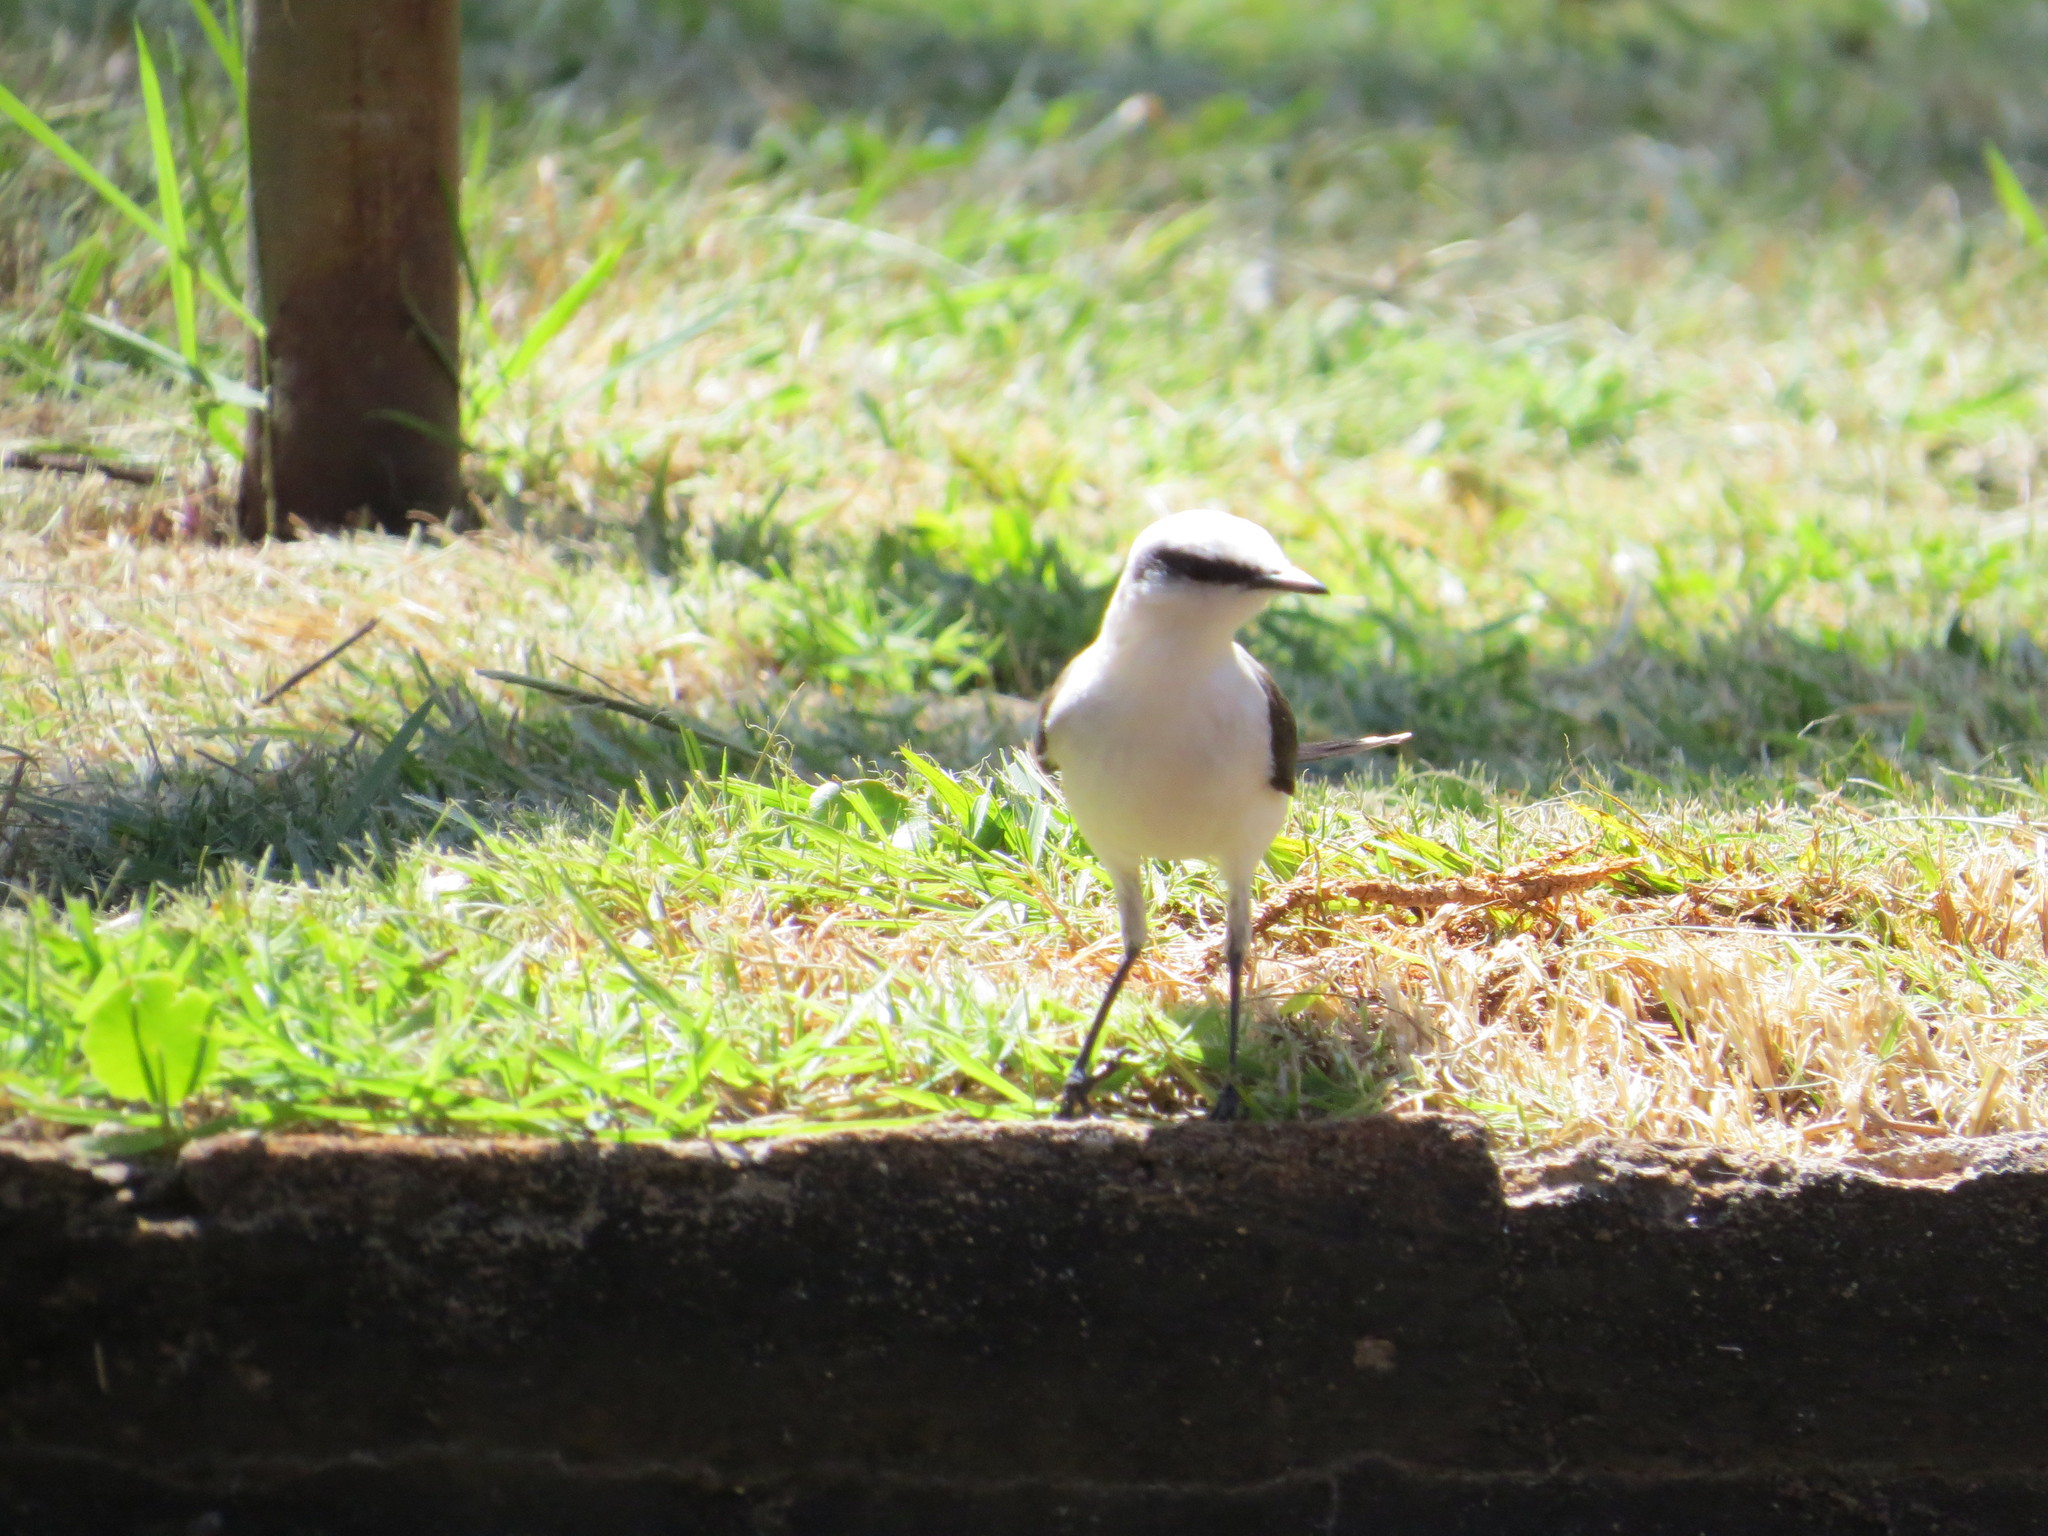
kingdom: Animalia
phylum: Chordata
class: Aves
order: Passeriformes
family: Tyrannidae
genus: Fluvicola
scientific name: Fluvicola nengeta
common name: Masked water tyrant
